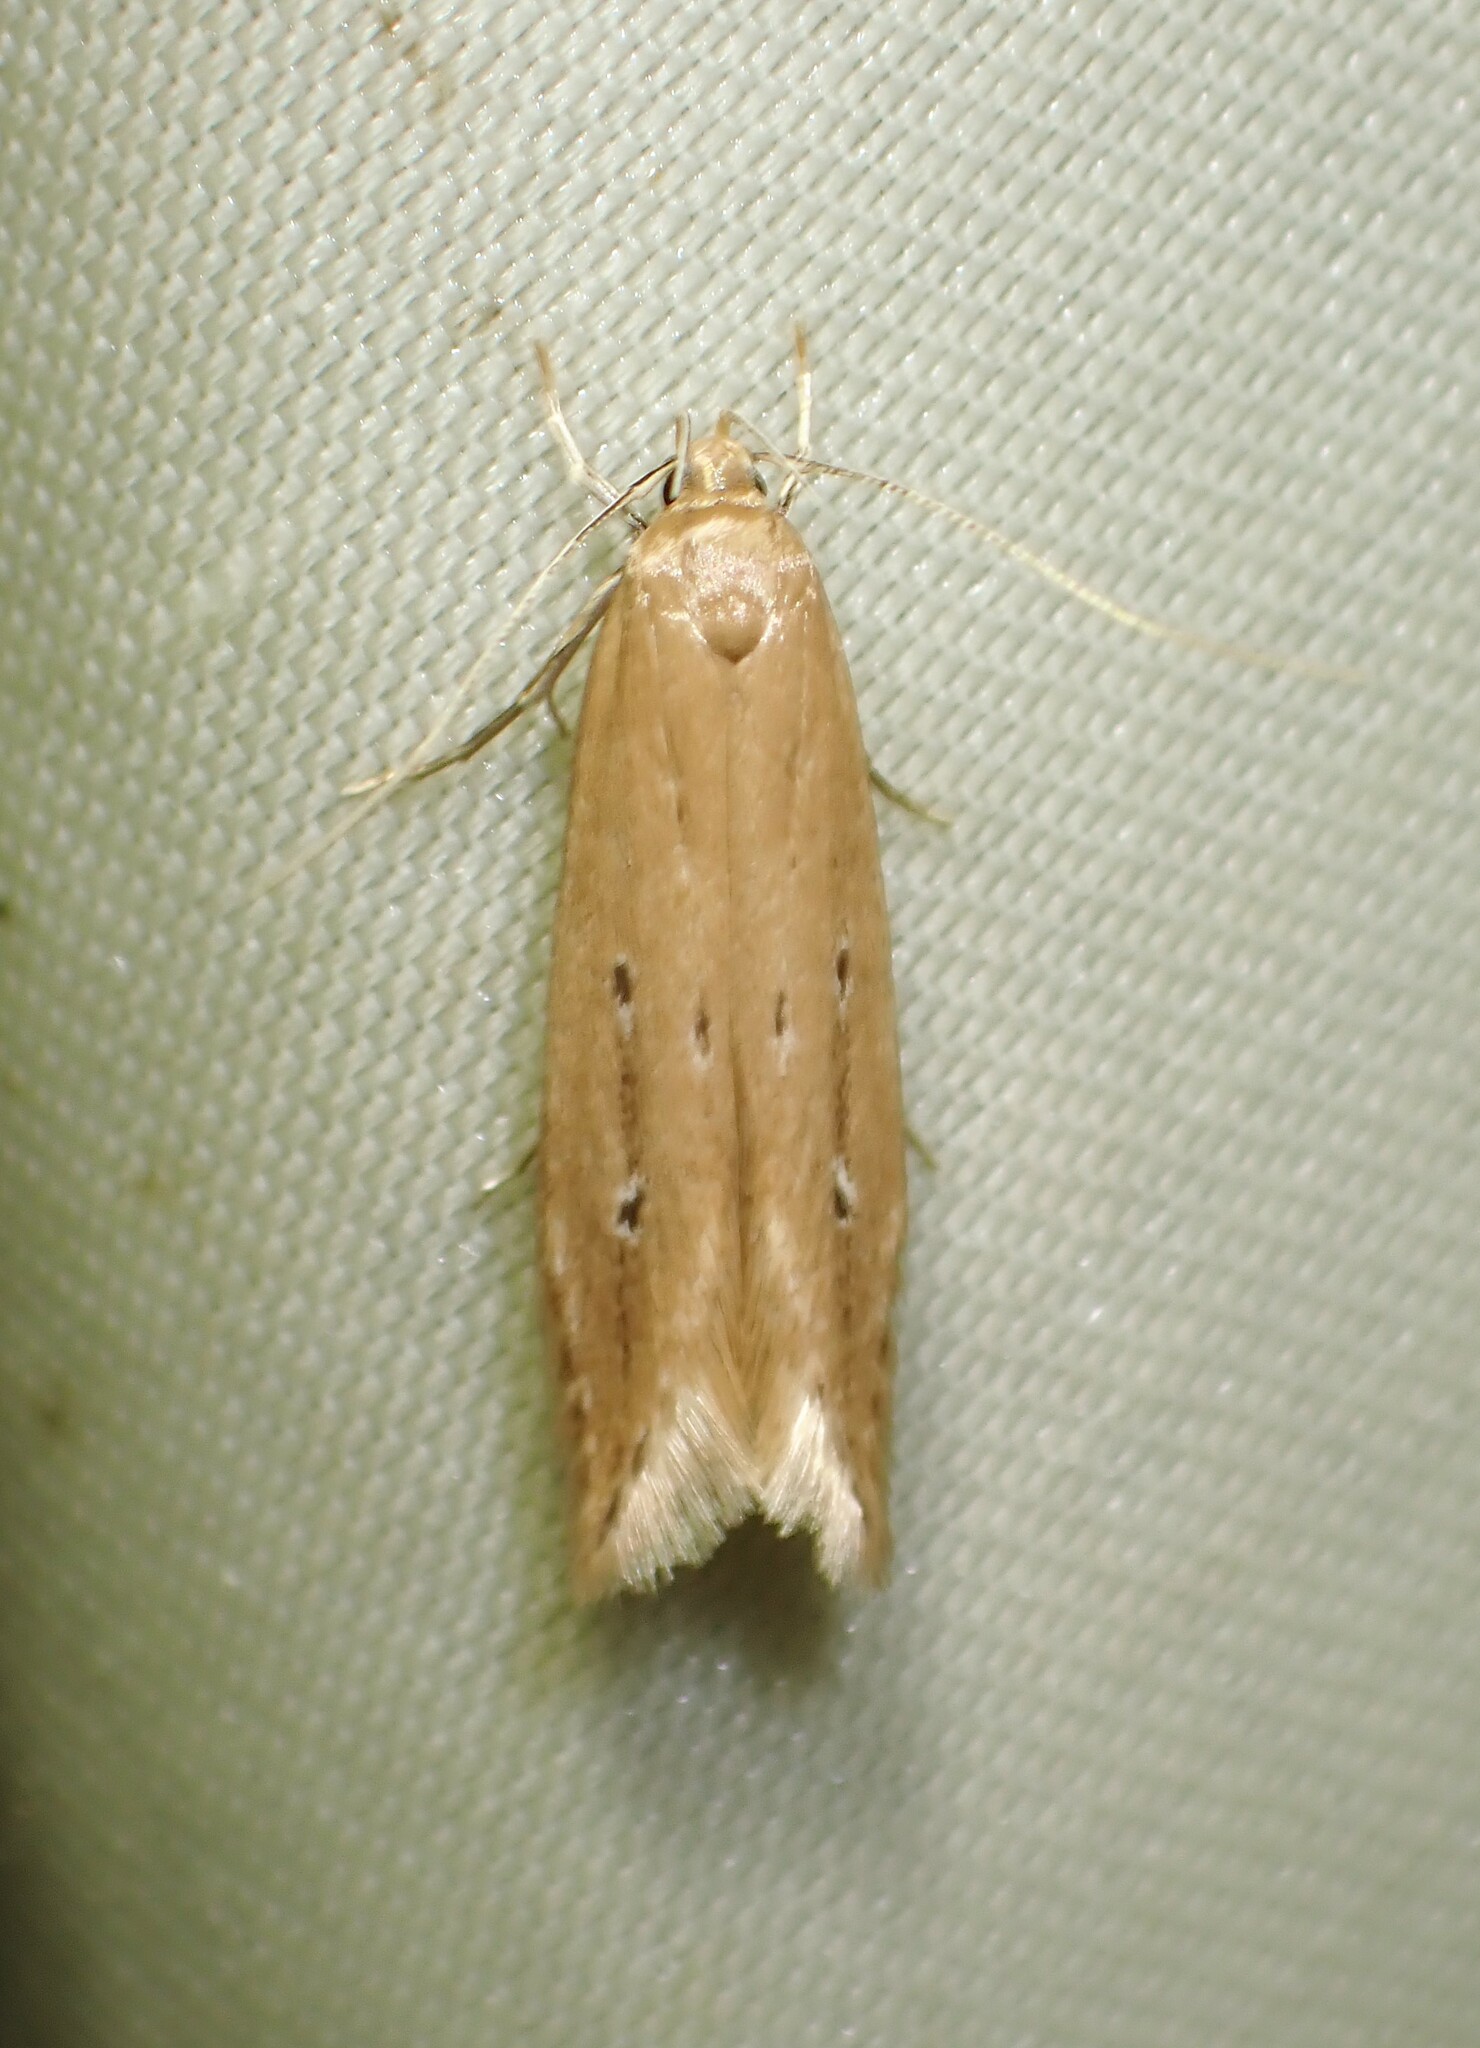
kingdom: Animalia
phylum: Arthropoda
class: Insecta
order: Lepidoptera
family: Cosmopterigidae
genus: Limnaecia
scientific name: Limnaecia phragmitella
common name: Bulrush cosmet
